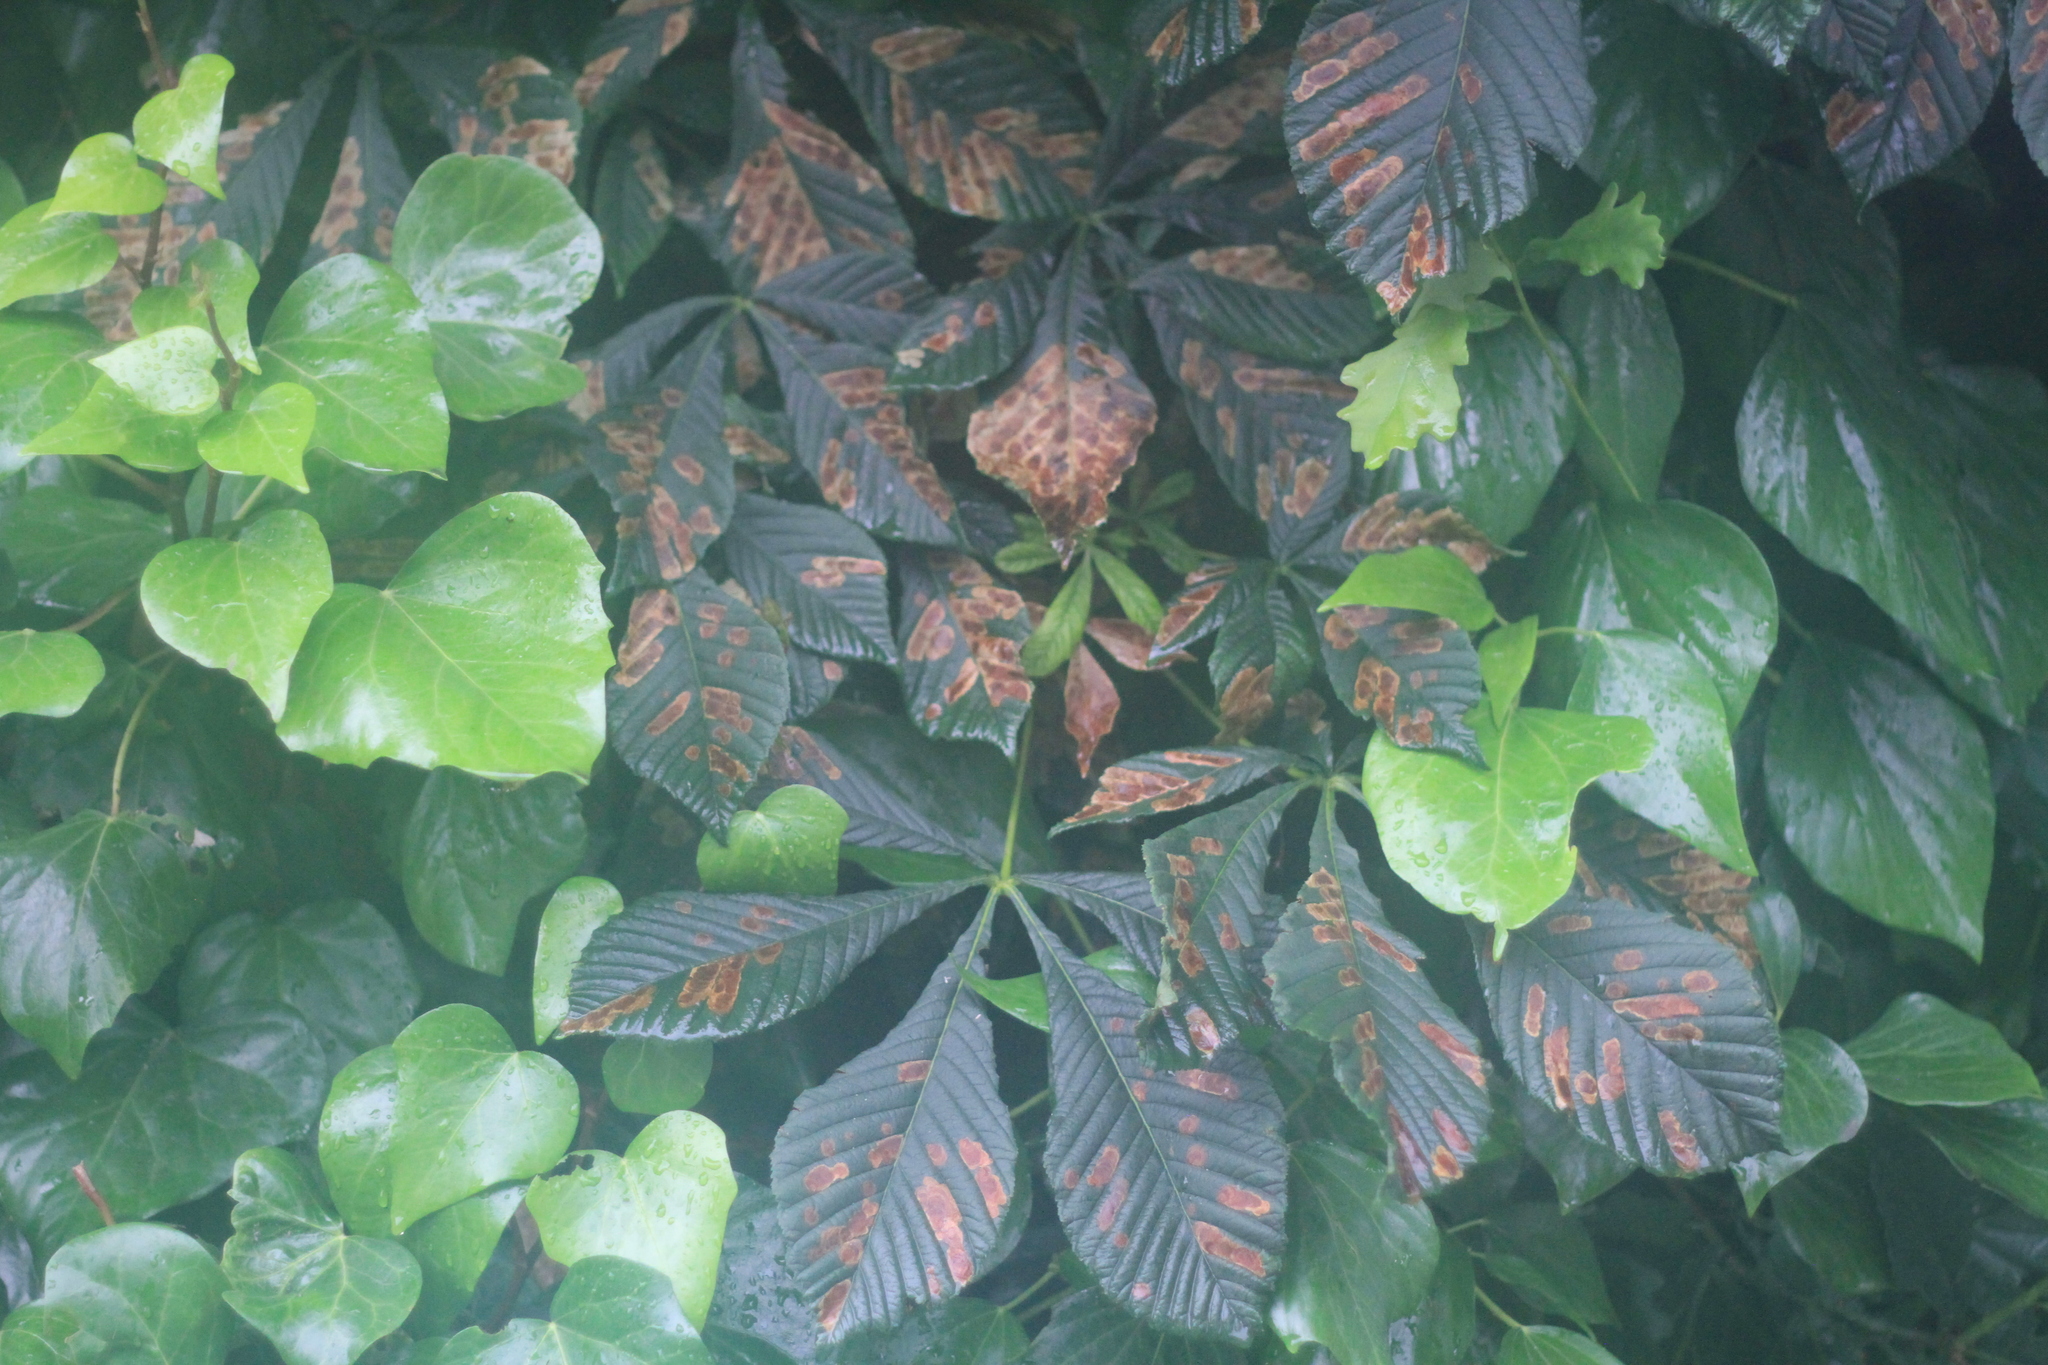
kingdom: Animalia
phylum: Arthropoda
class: Insecta
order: Lepidoptera
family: Gracillariidae
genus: Cameraria
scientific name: Cameraria ohridella
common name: Horse-chestnut leaf-miner
